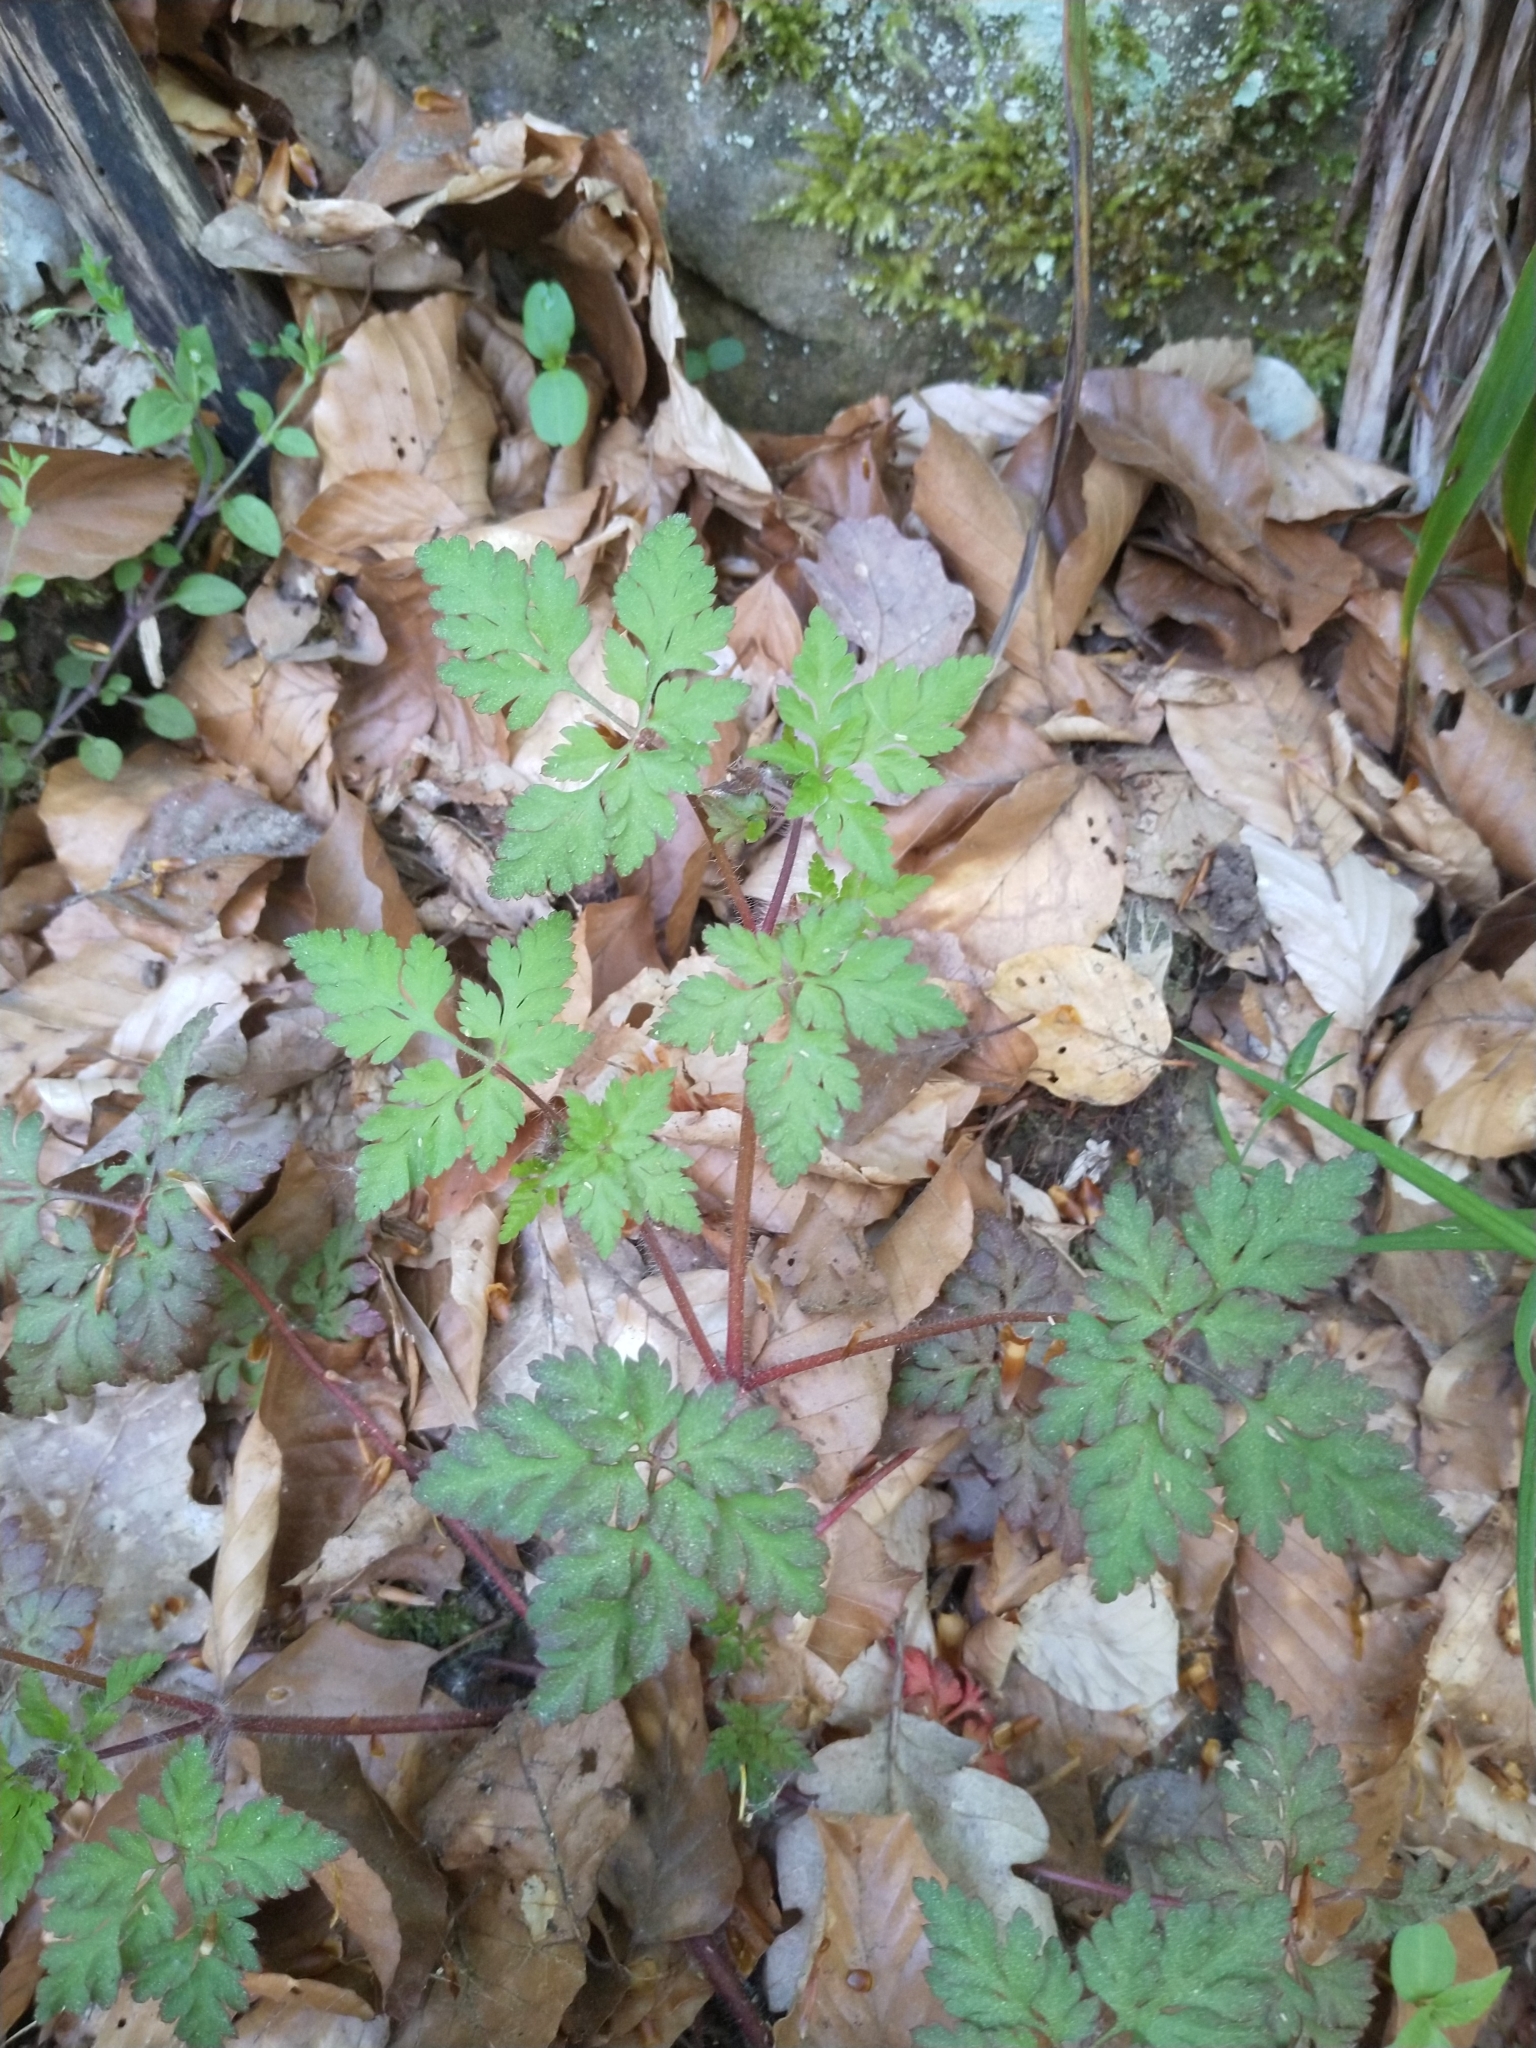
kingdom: Plantae
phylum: Tracheophyta
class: Magnoliopsida
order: Geraniales
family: Geraniaceae
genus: Geranium
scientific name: Geranium robertianum
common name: Herb-robert
